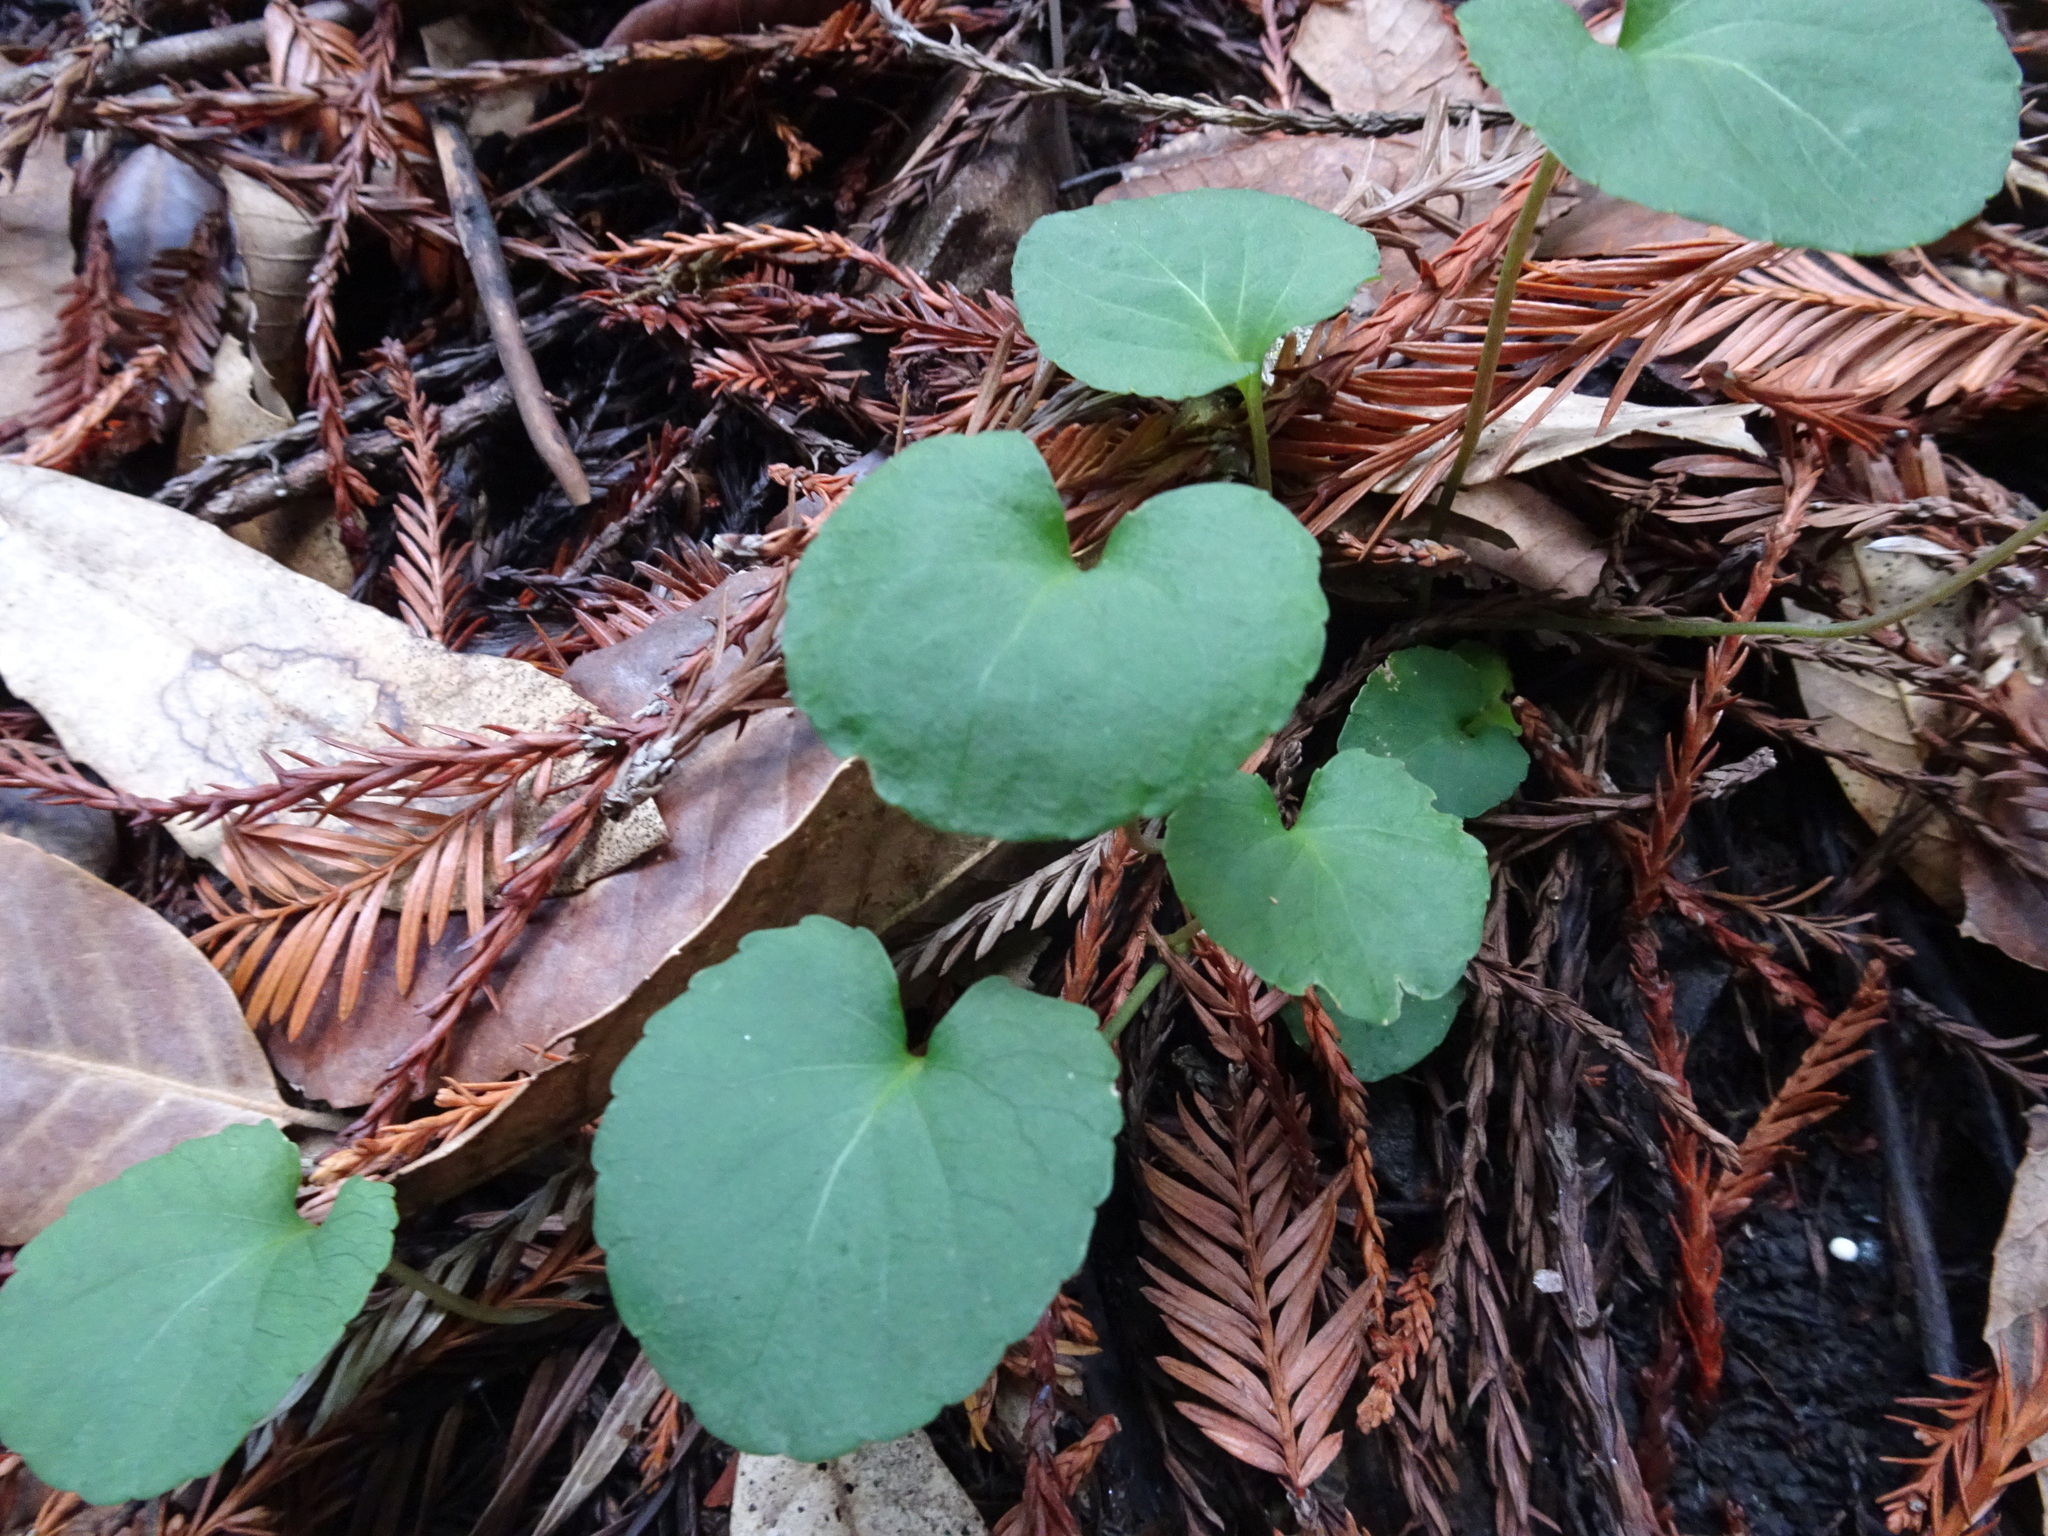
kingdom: Plantae
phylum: Tracheophyta
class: Magnoliopsida
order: Malpighiales
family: Violaceae
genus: Viola
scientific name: Viola sempervirens
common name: Evergreen violet
